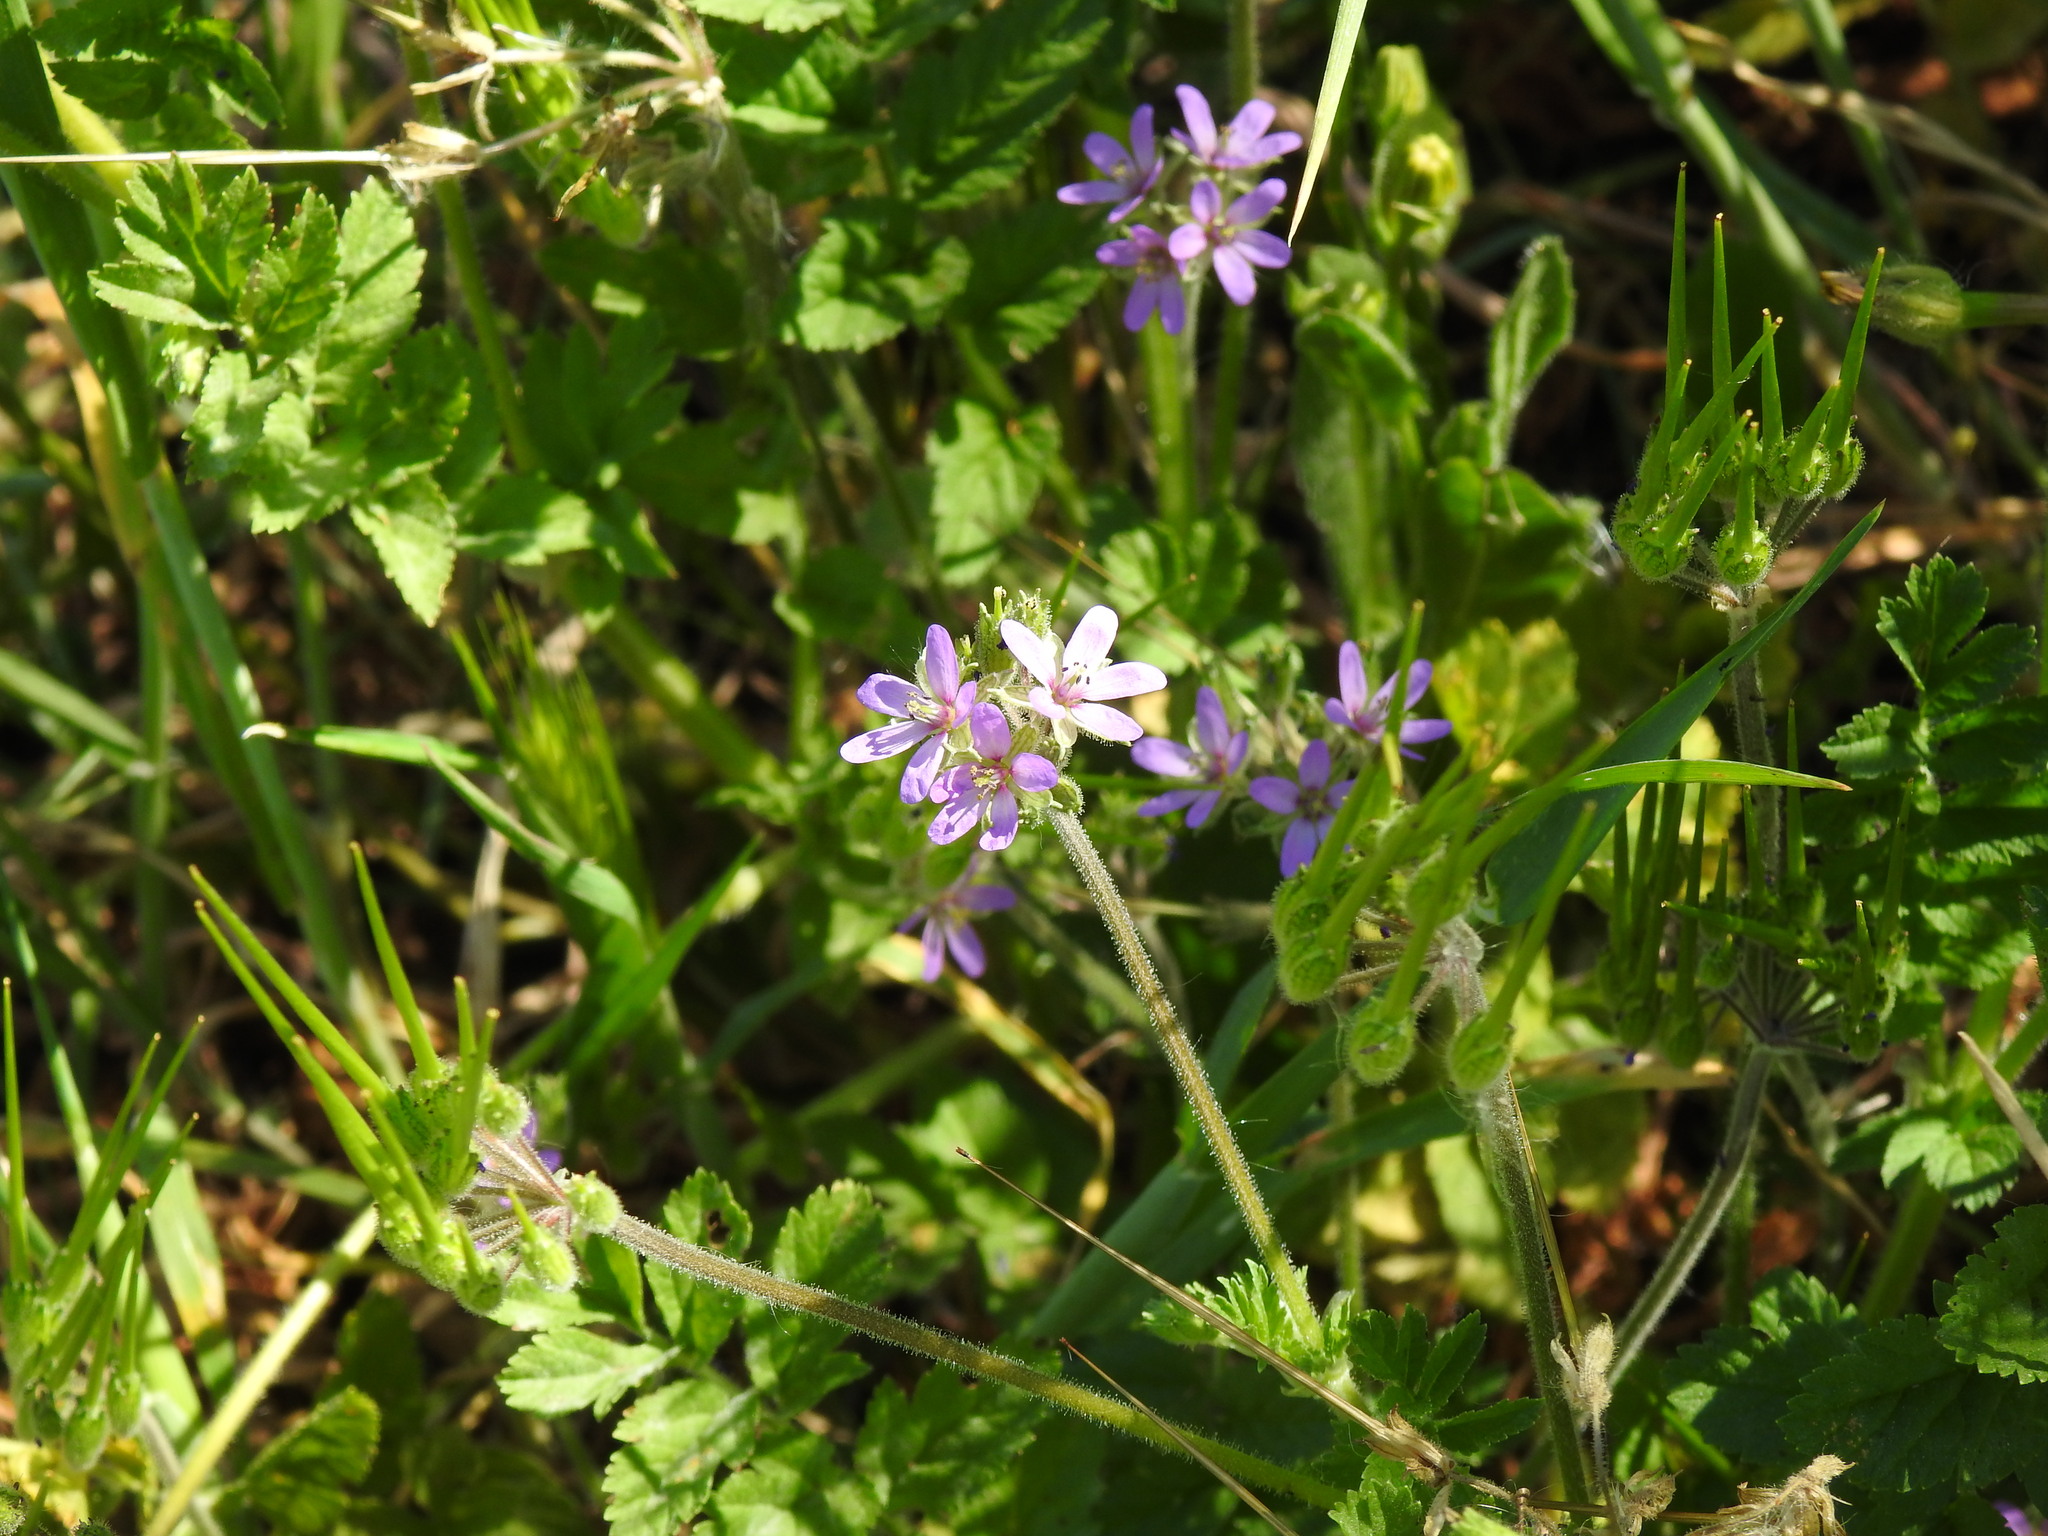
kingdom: Plantae
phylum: Tracheophyta
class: Magnoliopsida
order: Geraniales
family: Geraniaceae
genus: Erodium
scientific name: Erodium moschatum
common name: Musk stork's-bill
